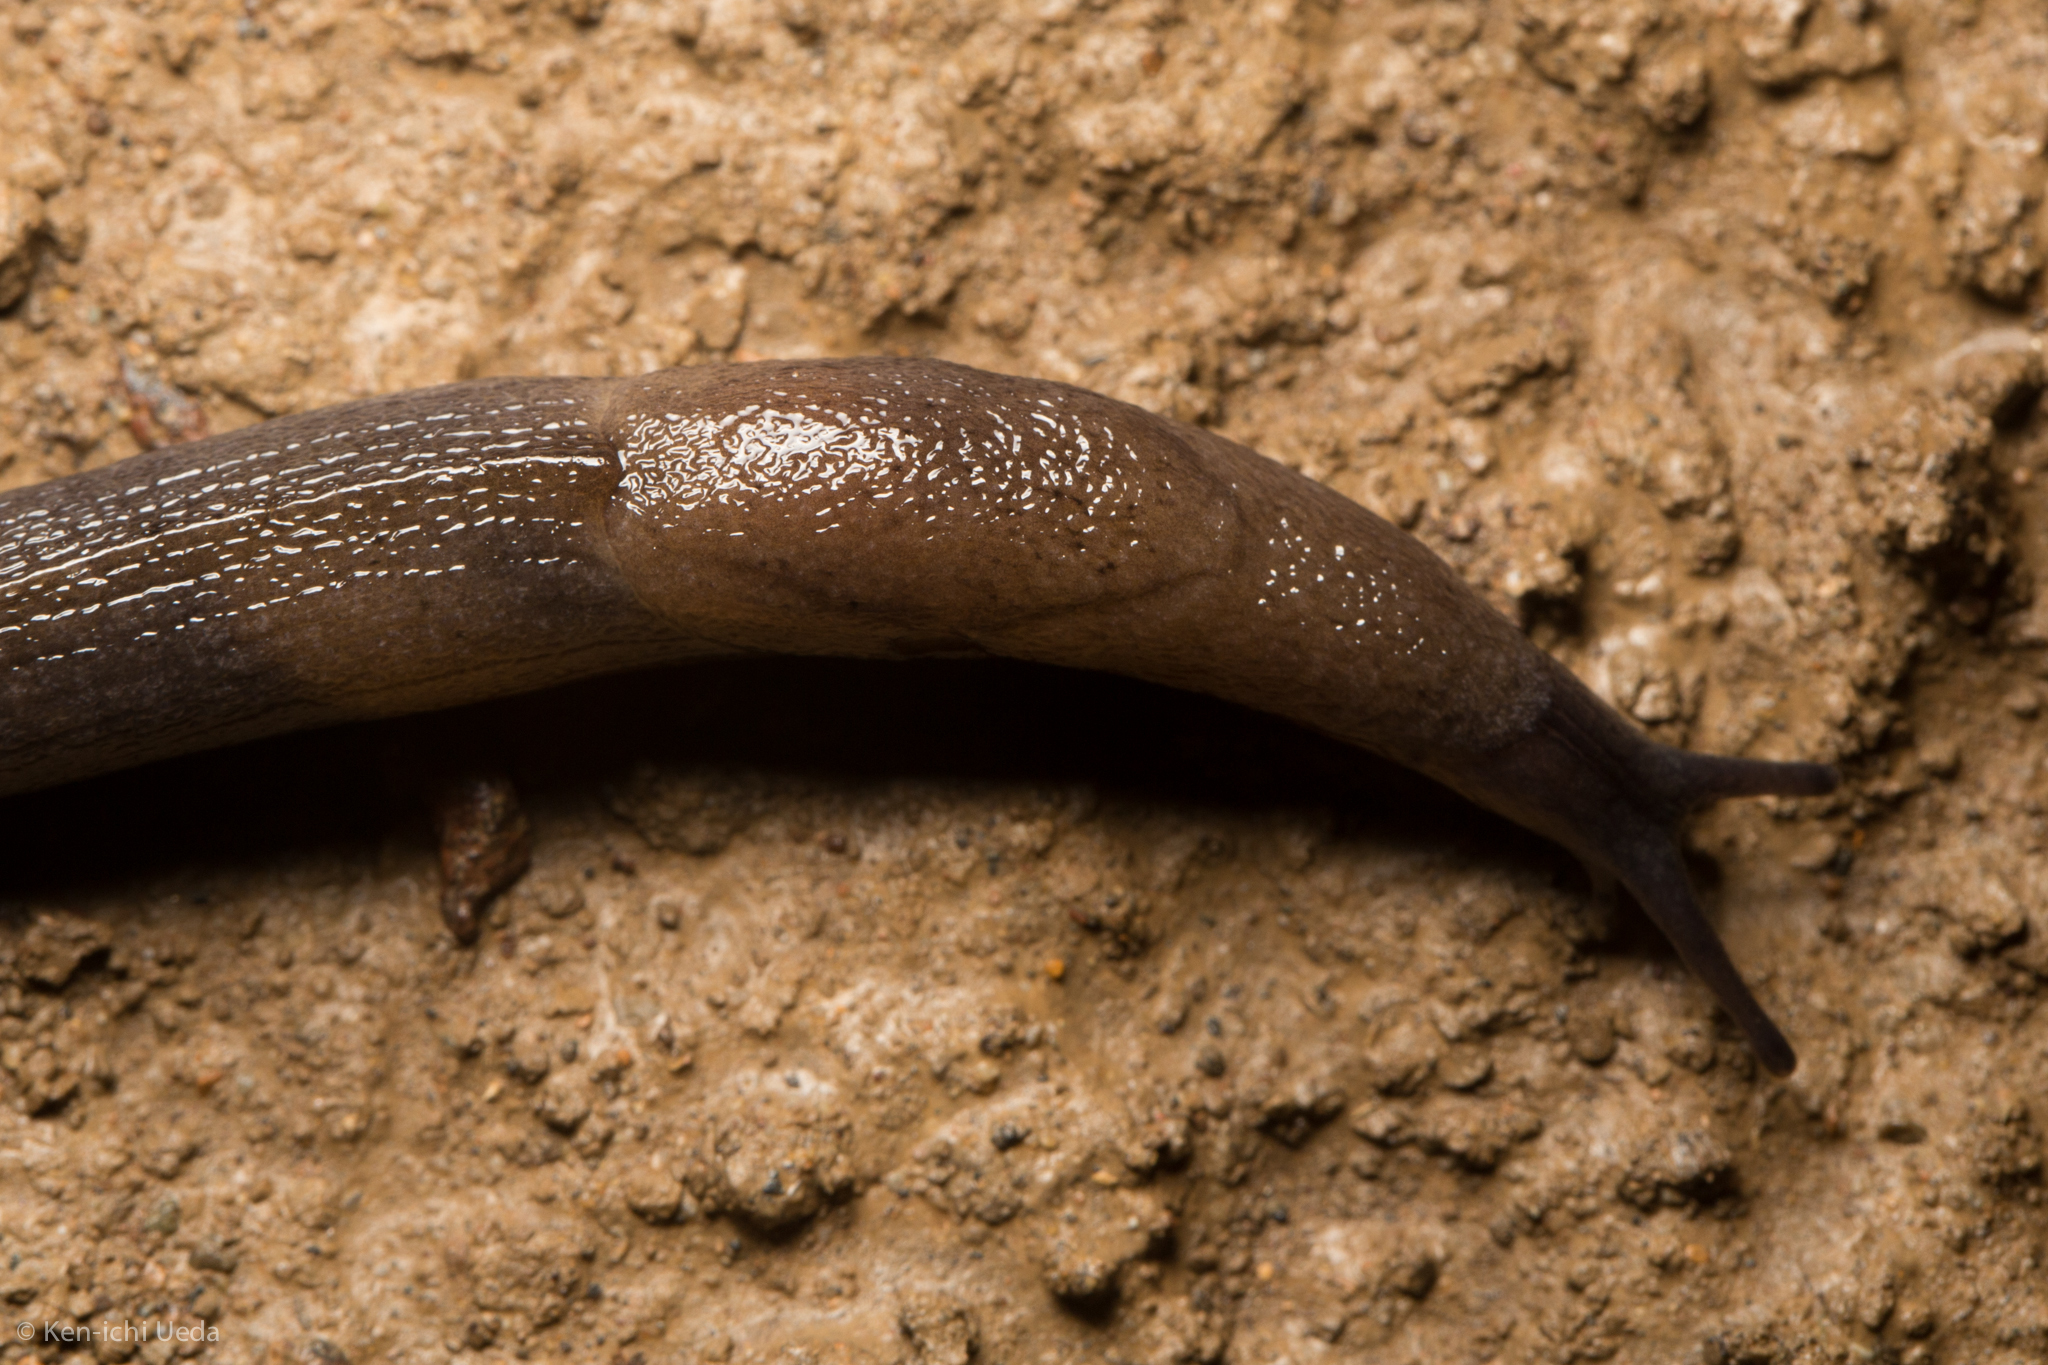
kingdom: Animalia
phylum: Mollusca
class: Gastropoda
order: Stylommatophora
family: Milacidae
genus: Milax
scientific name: Milax gagates
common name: Greenhouse slug
